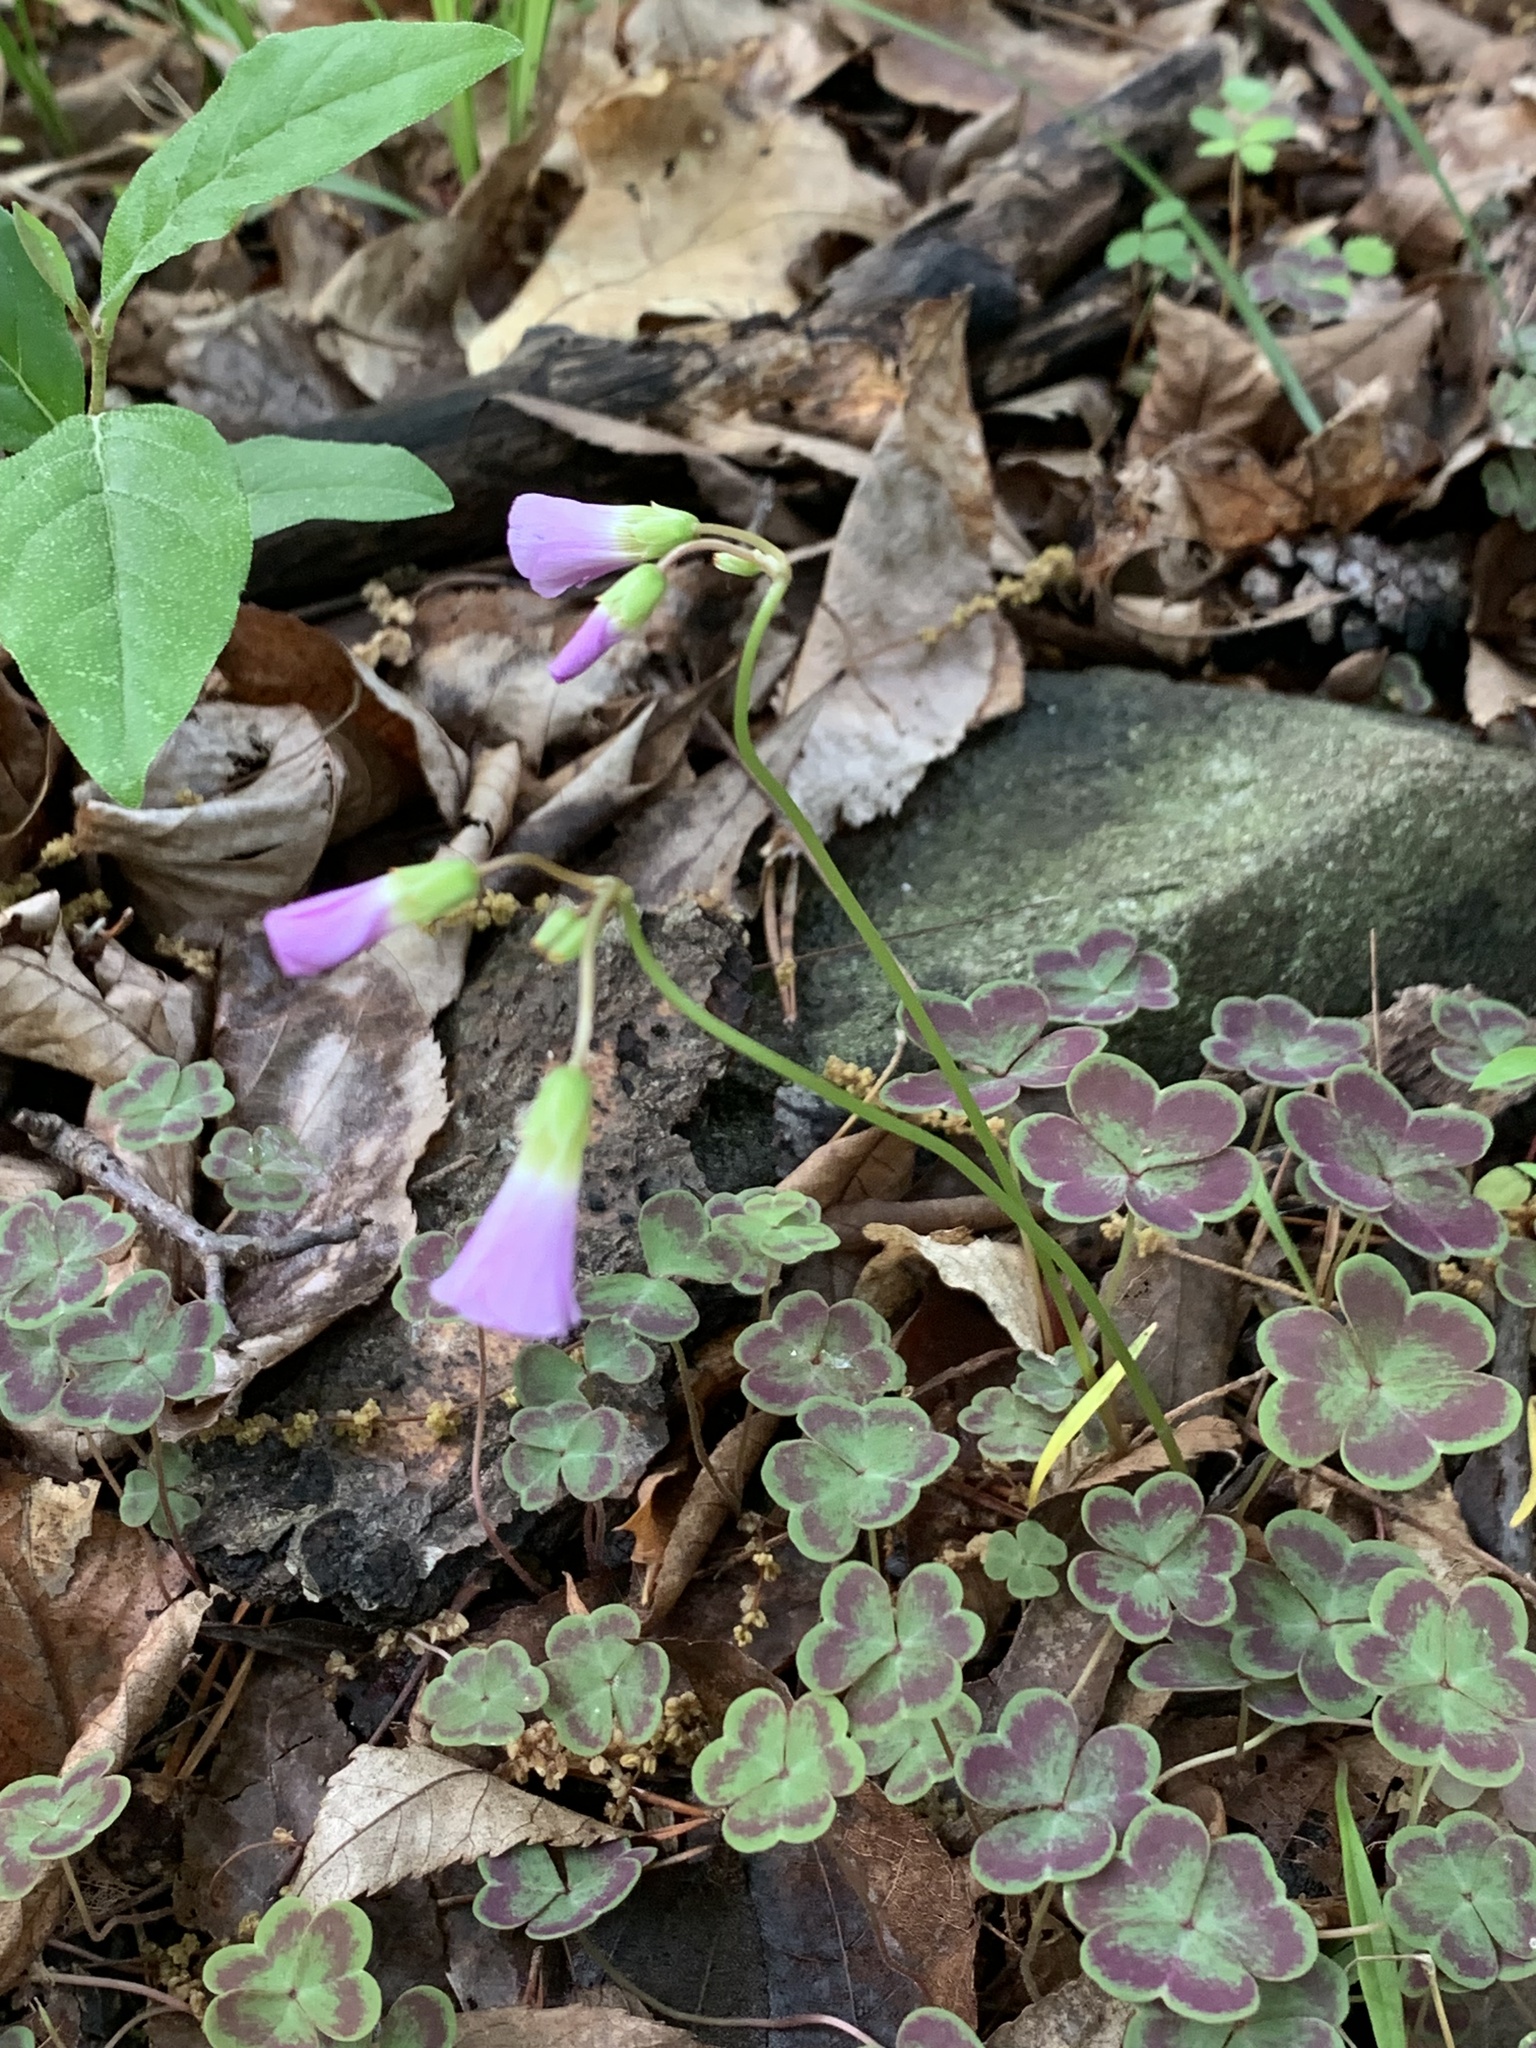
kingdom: Plantae
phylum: Tracheophyta
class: Magnoliopsida
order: Oxalidales
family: Oxalidaceae
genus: Oxalis
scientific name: Oxalis violacea
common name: Violet wood-sorrel
